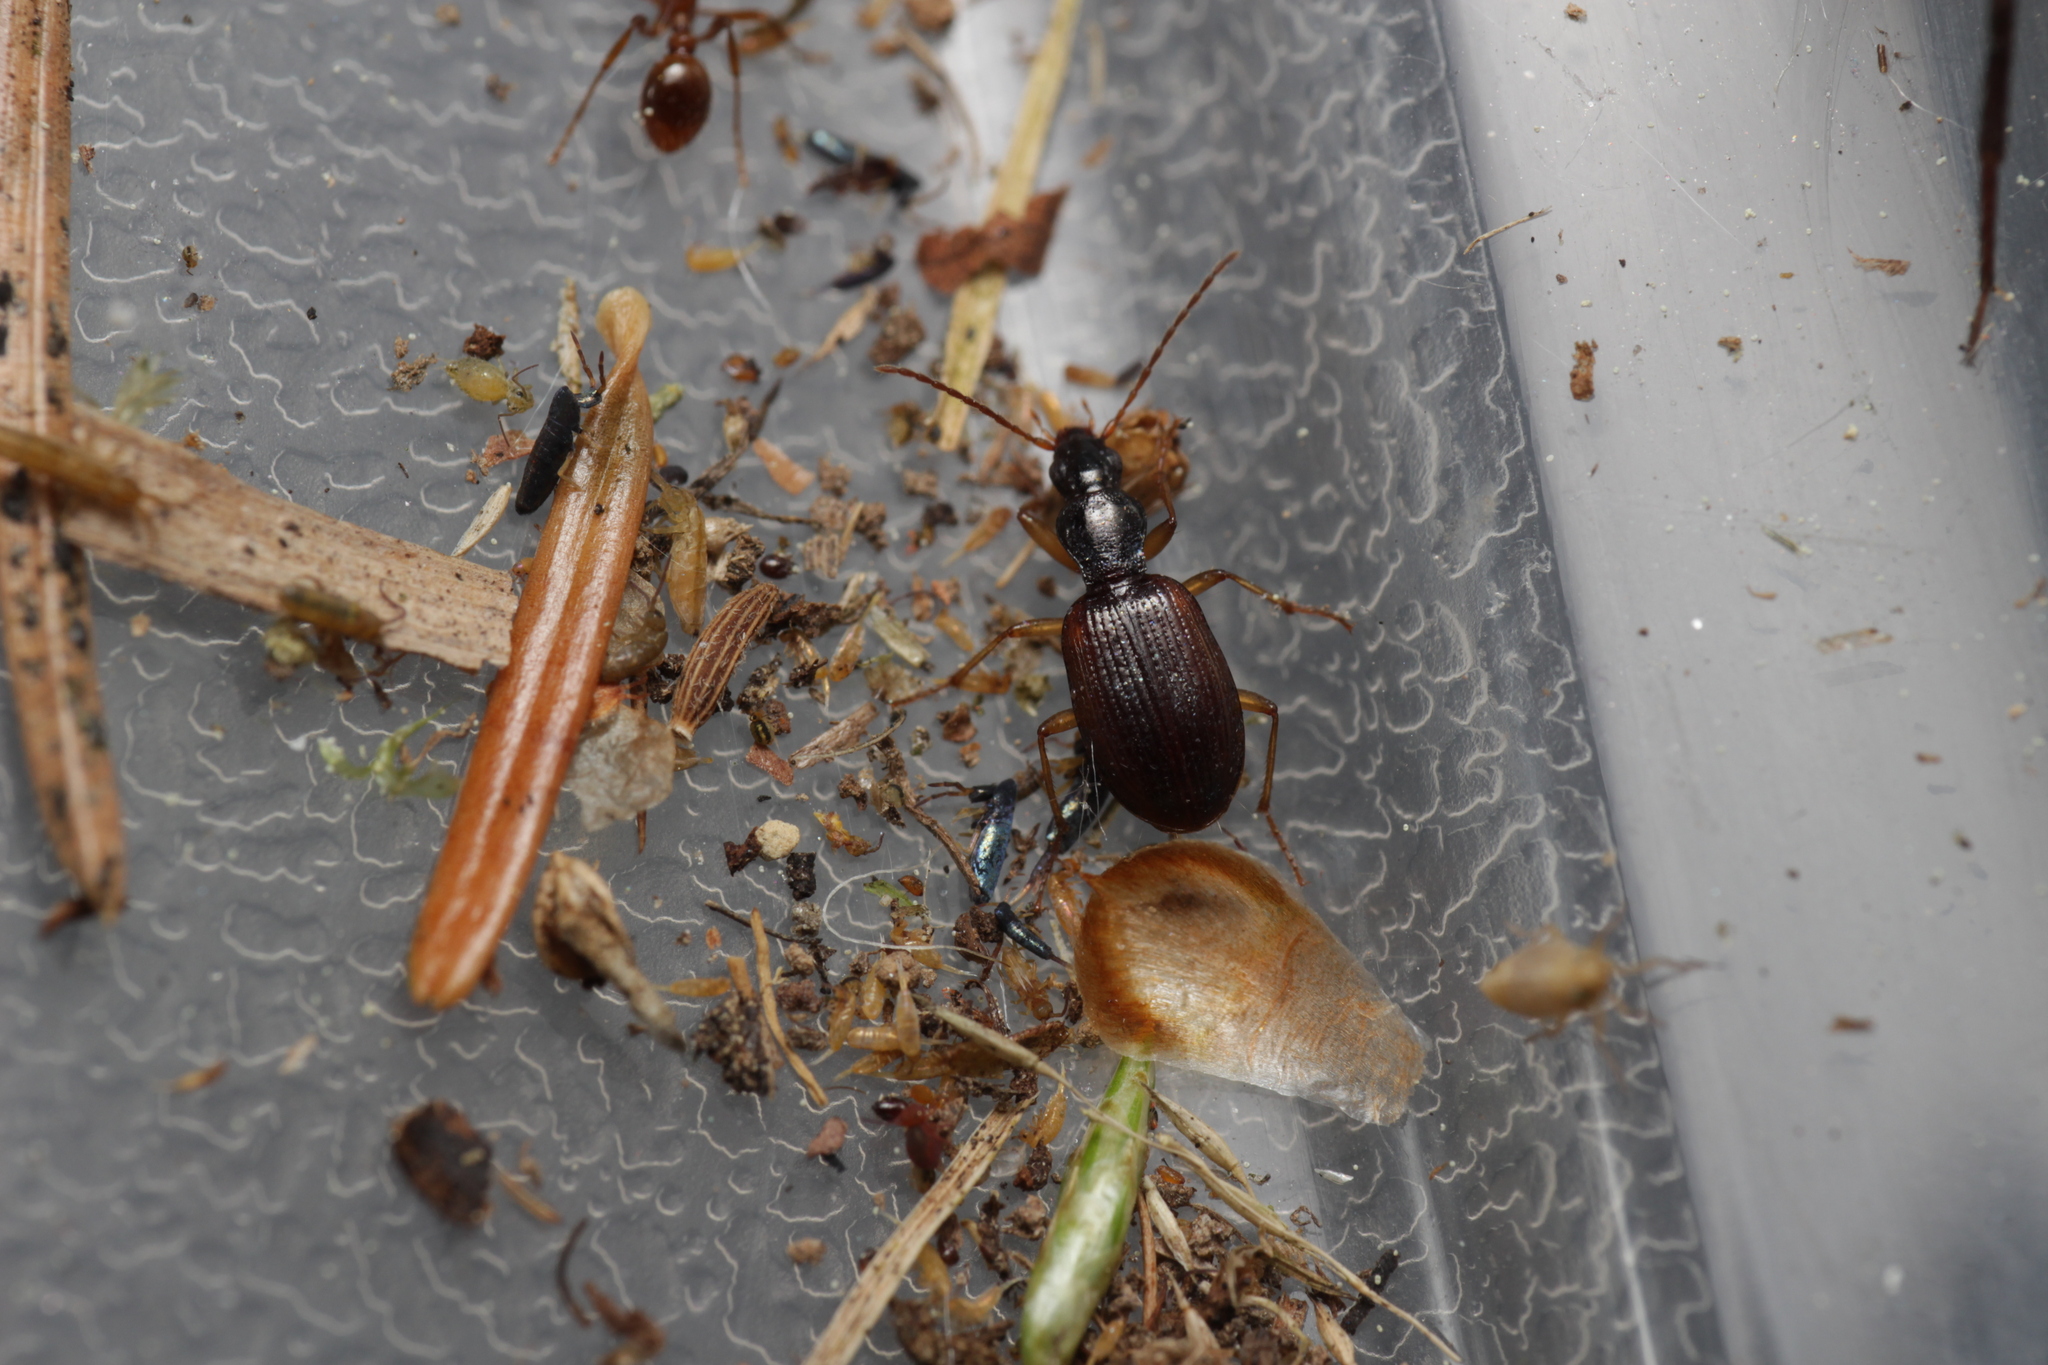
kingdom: Animalia
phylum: Arthropoda
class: Insecta
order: Coleoptera
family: Carabidae
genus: Oxypselaphus
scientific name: Oxypselaphus obscurus
